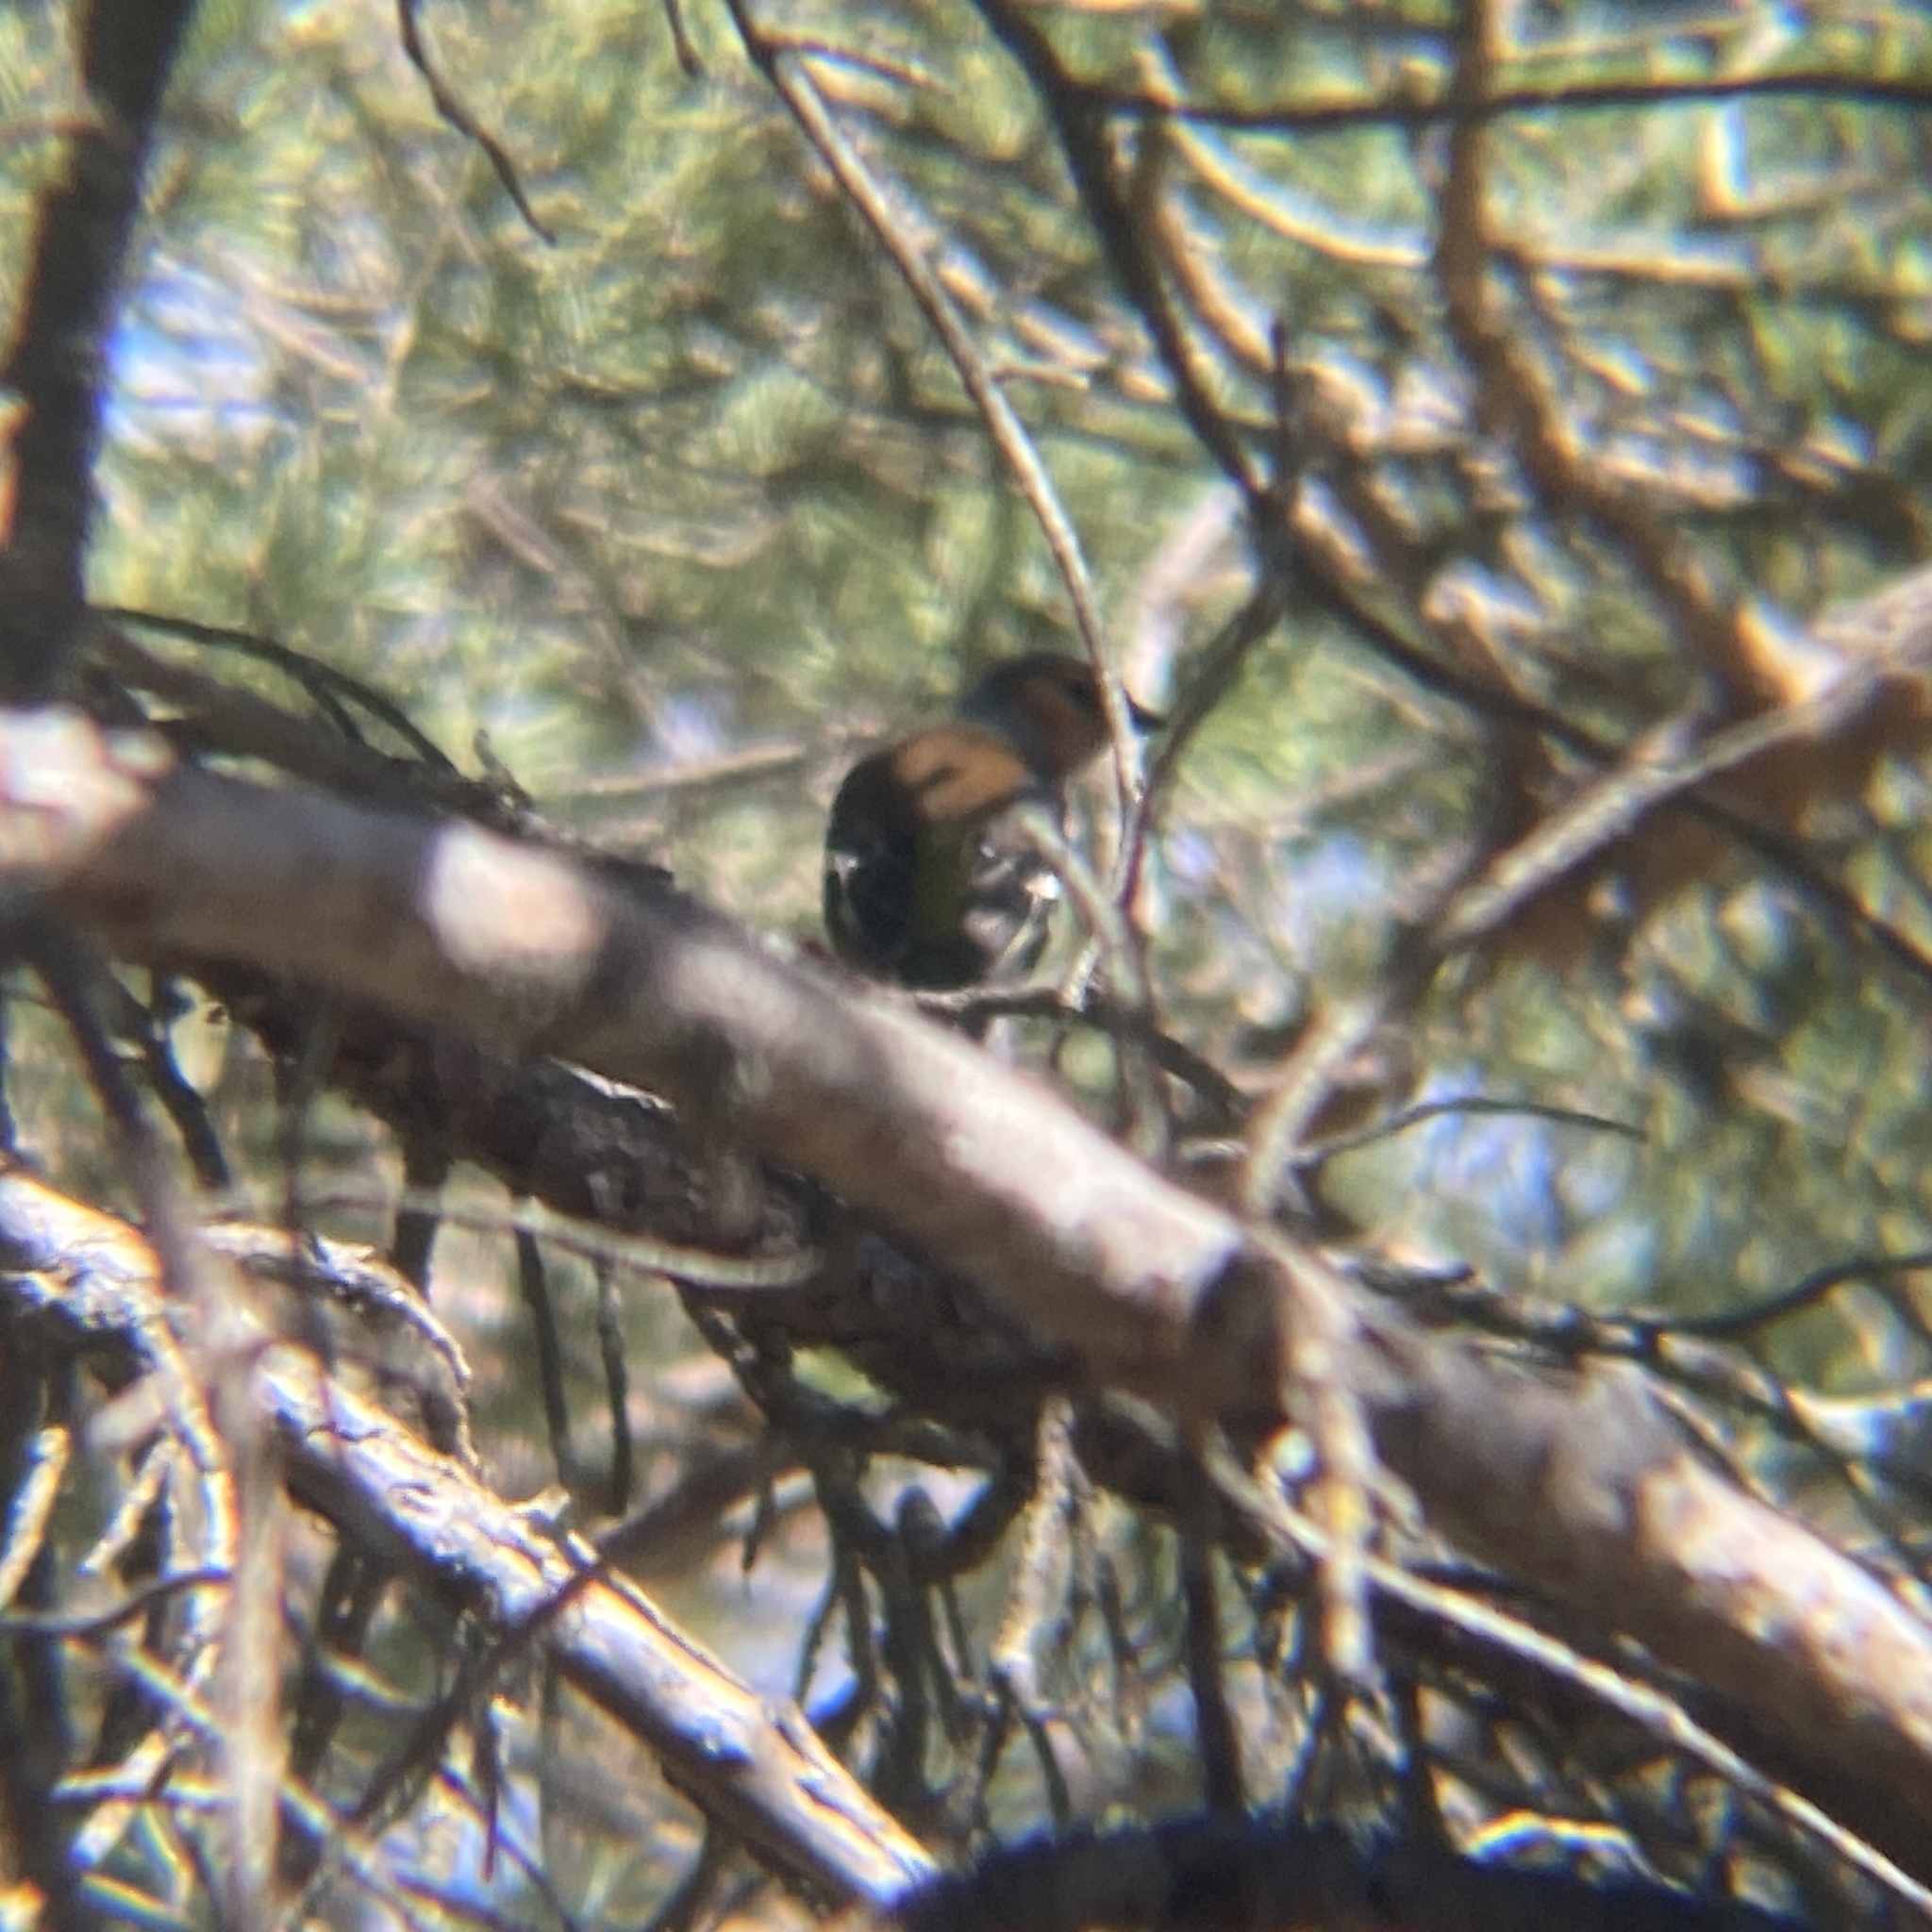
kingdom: Animalia
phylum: Chordata
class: Aves
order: Passeriformes
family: Fringillidae
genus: Fringilla
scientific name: Fringilla coelebs
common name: Common chaffinch
